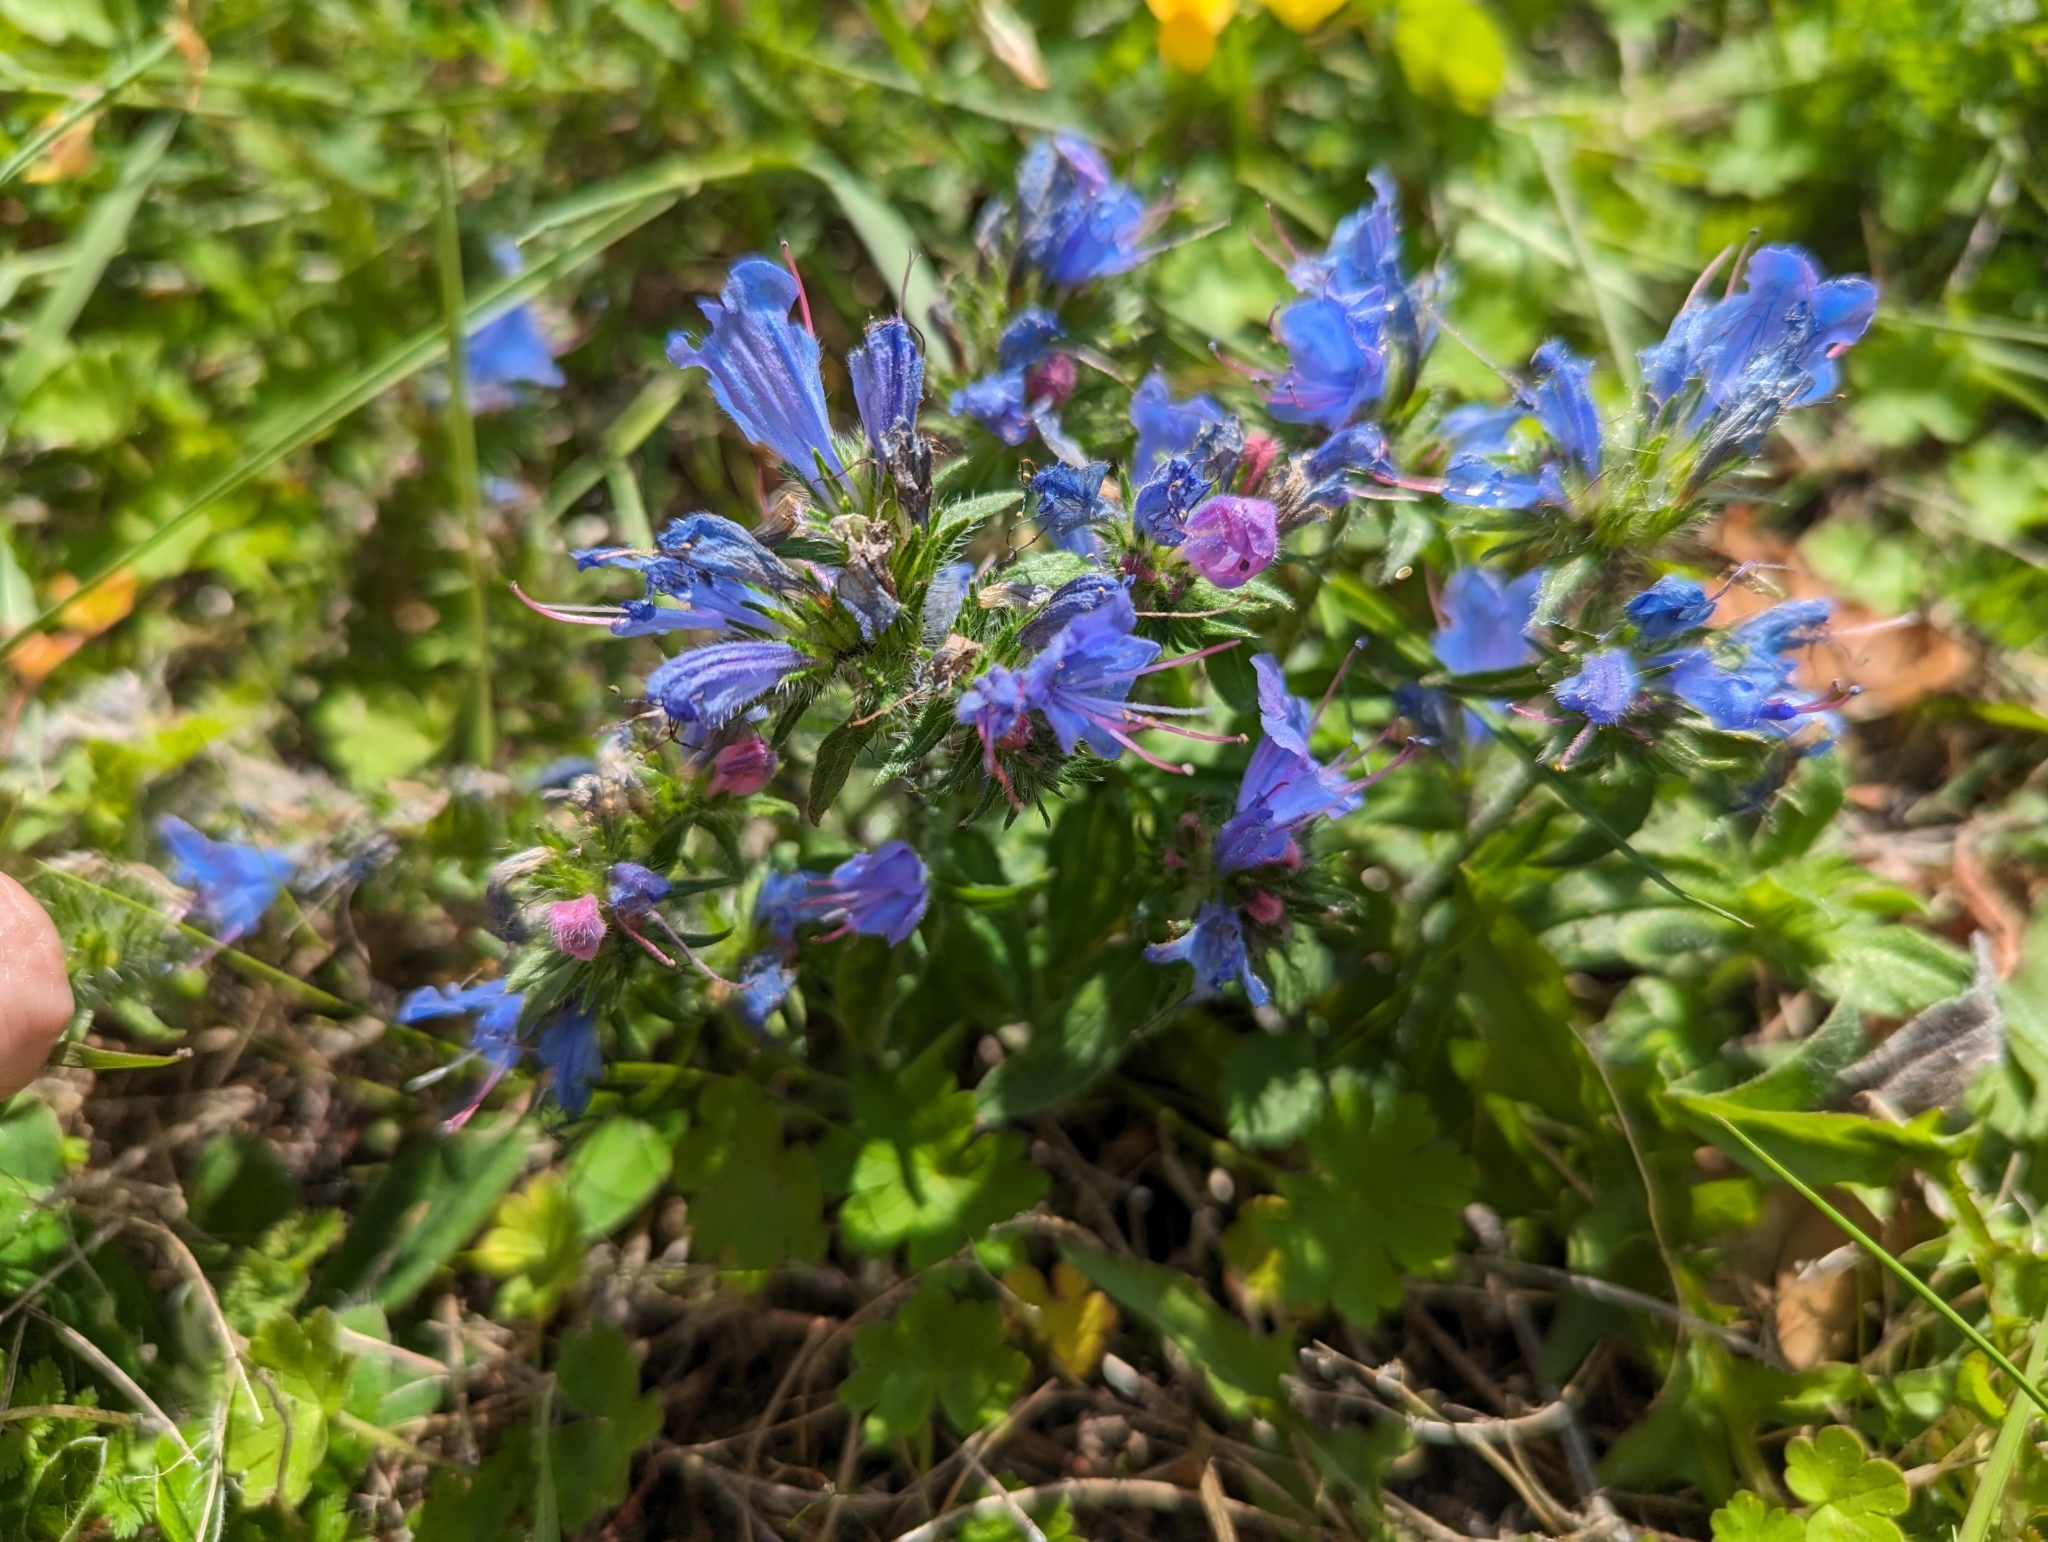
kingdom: Plantae
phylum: Tracheophyta
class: Magnoliopsida
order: Boraginales
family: Boraginaceae
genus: Echium
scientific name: Echium vulgare
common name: Common viper's bugloss
